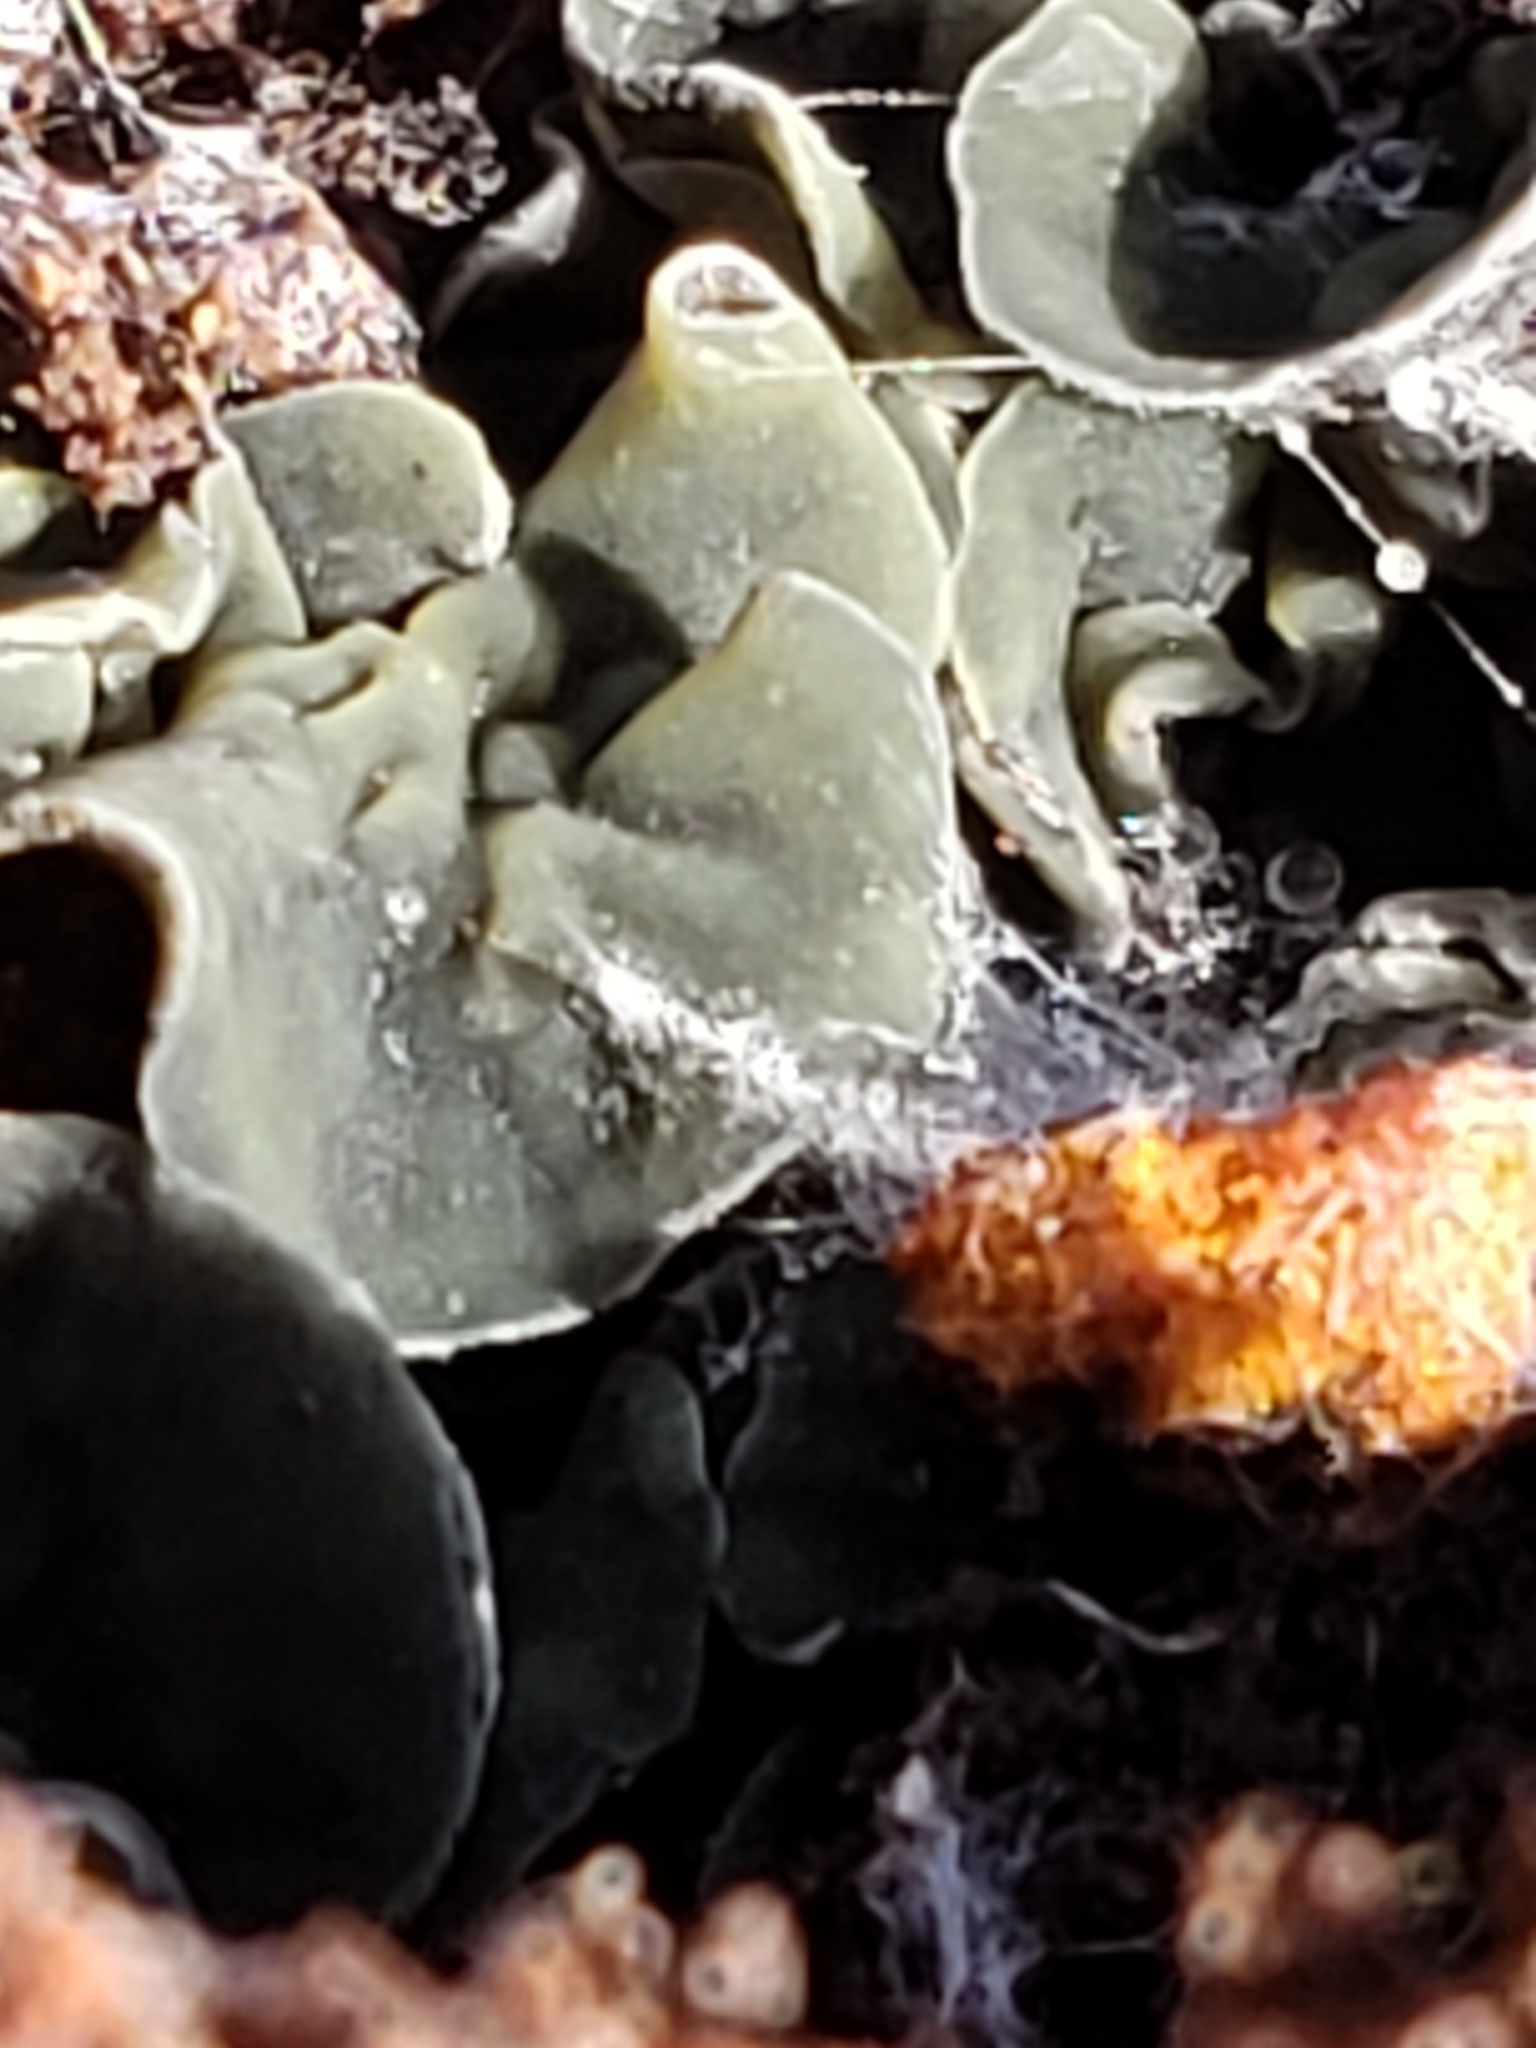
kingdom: Fungi
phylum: Ascomycota
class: Leotiomycetes
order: Helotiales
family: Chlorospleniaceae
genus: Chlorosplenium
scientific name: Chlorosplenium chlora
